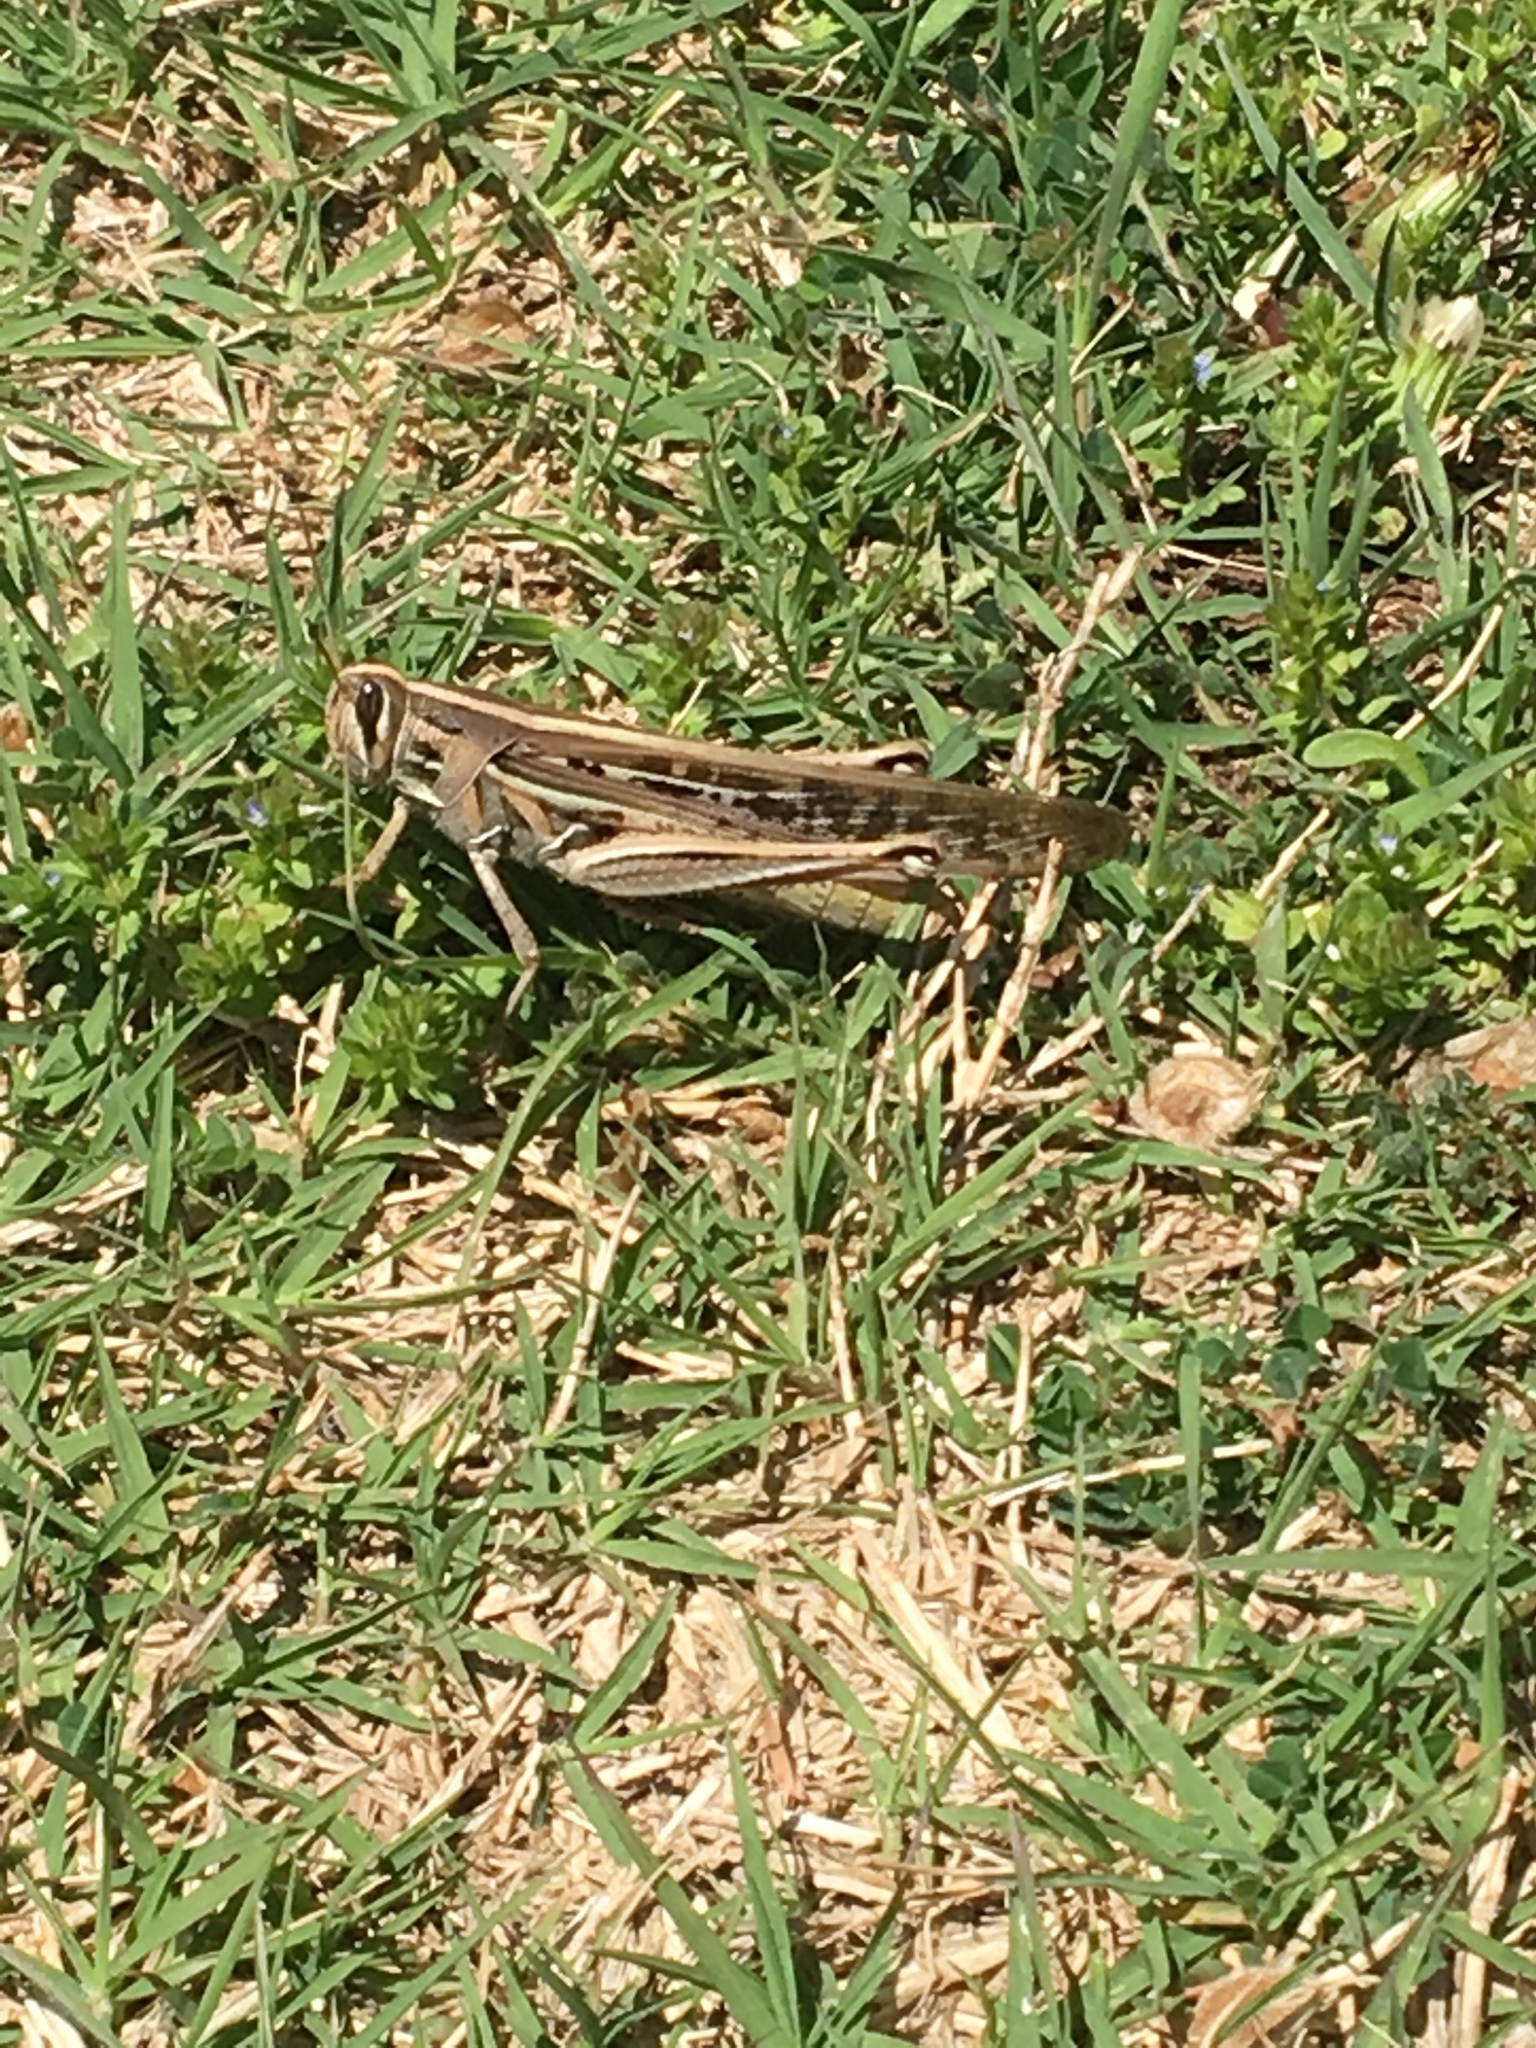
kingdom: Animalia
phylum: Arthropoda
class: Insecta
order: Orthoptera
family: Acrididae
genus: Schistocerca
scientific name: Schistocerca americana
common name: American bird locust
